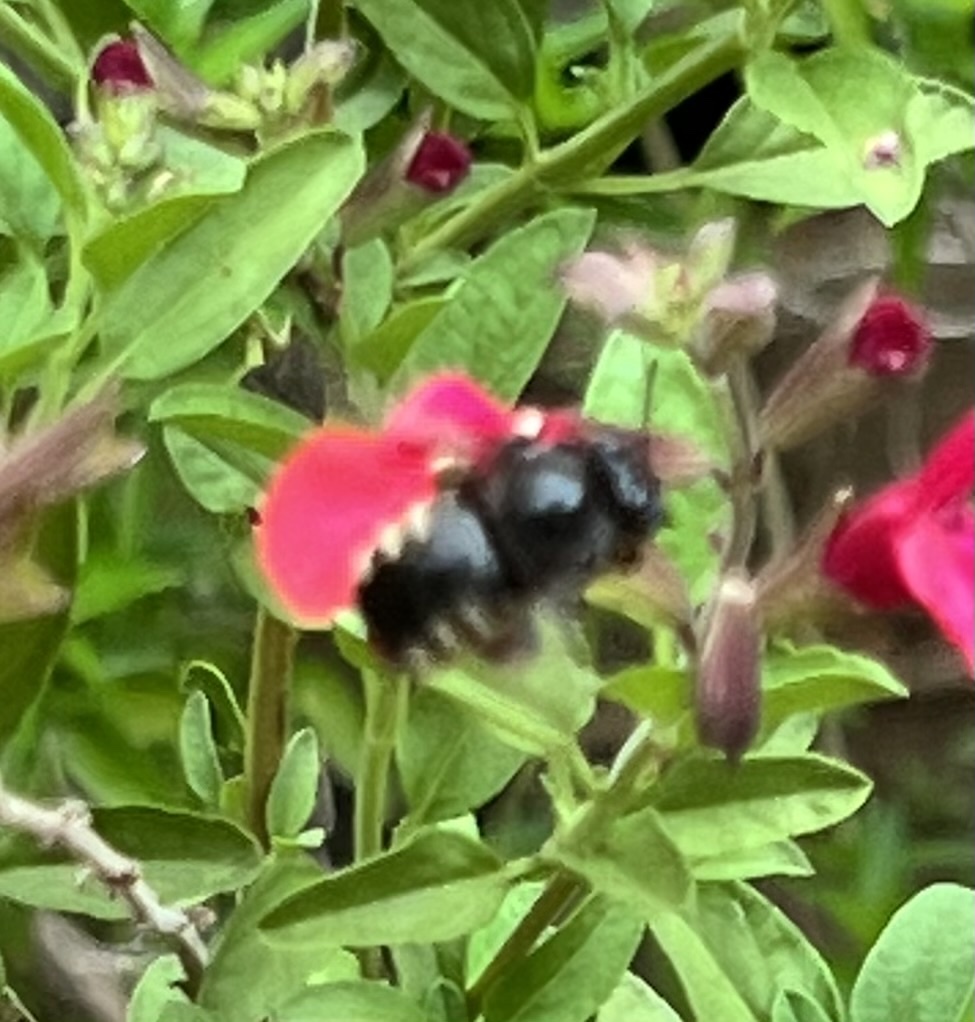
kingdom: Animalia
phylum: Arthropoda
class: Insecta
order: Hymenoptera
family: Apidae
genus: Xylocopa
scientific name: Xylocopa tabaniformis
